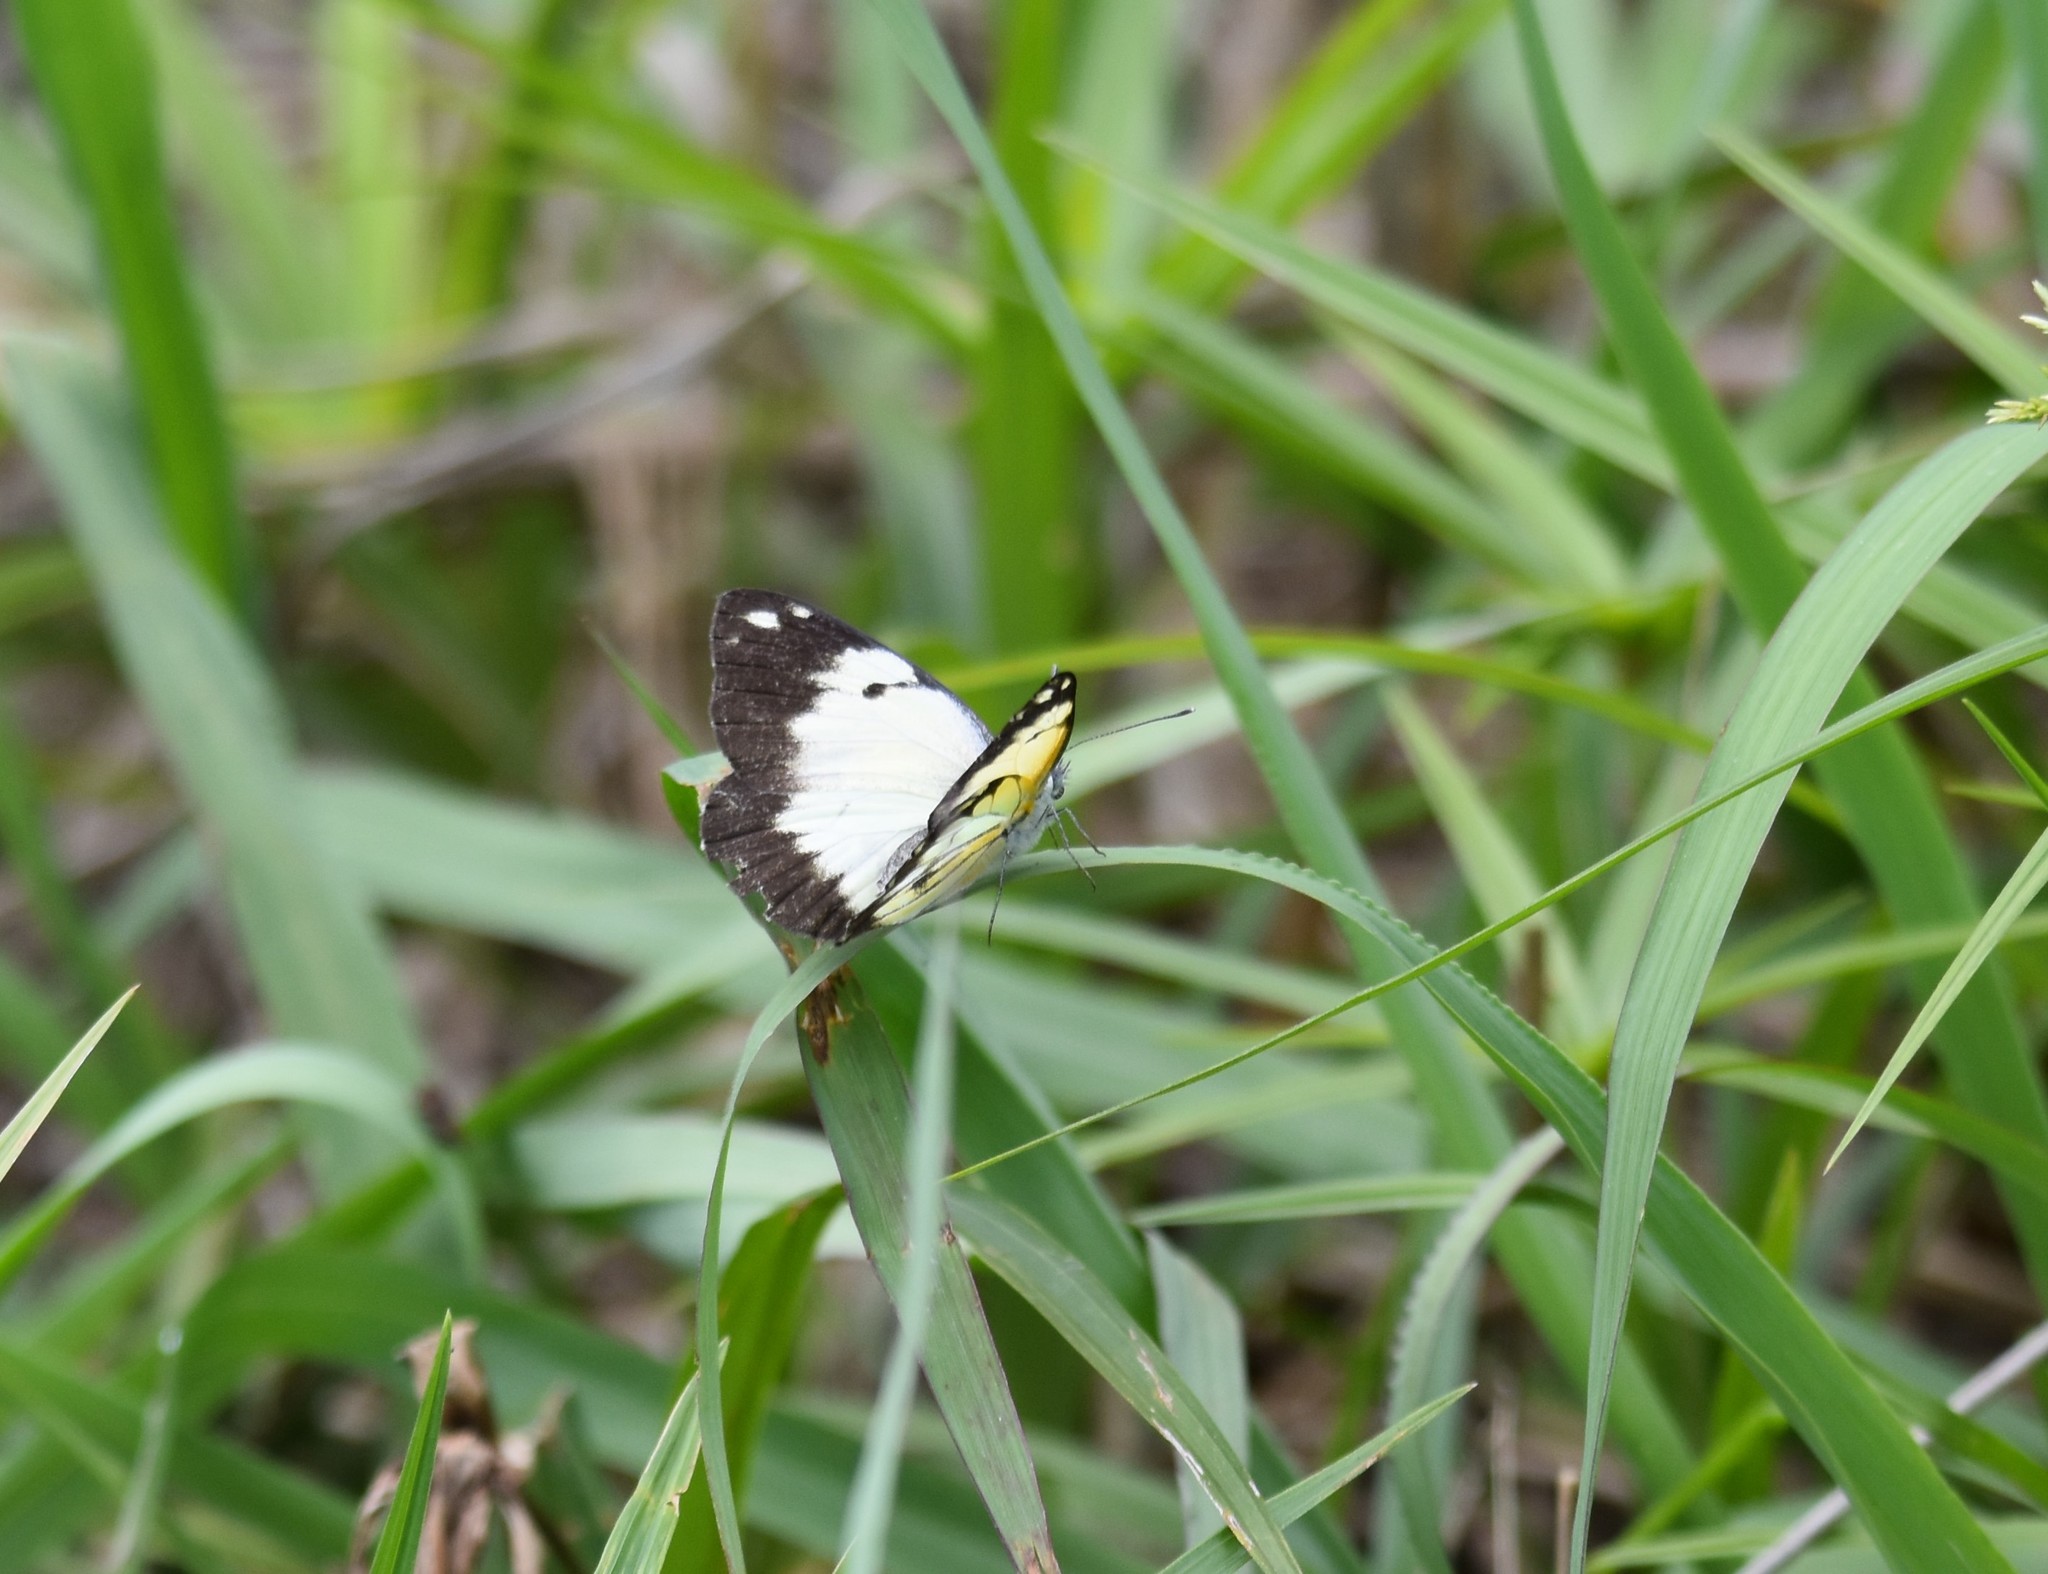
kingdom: Animalia
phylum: Arthropoda
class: Insecta
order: Lepidoptera
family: Pieridae
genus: Belenois
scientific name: Belenois creona
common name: African caper white
